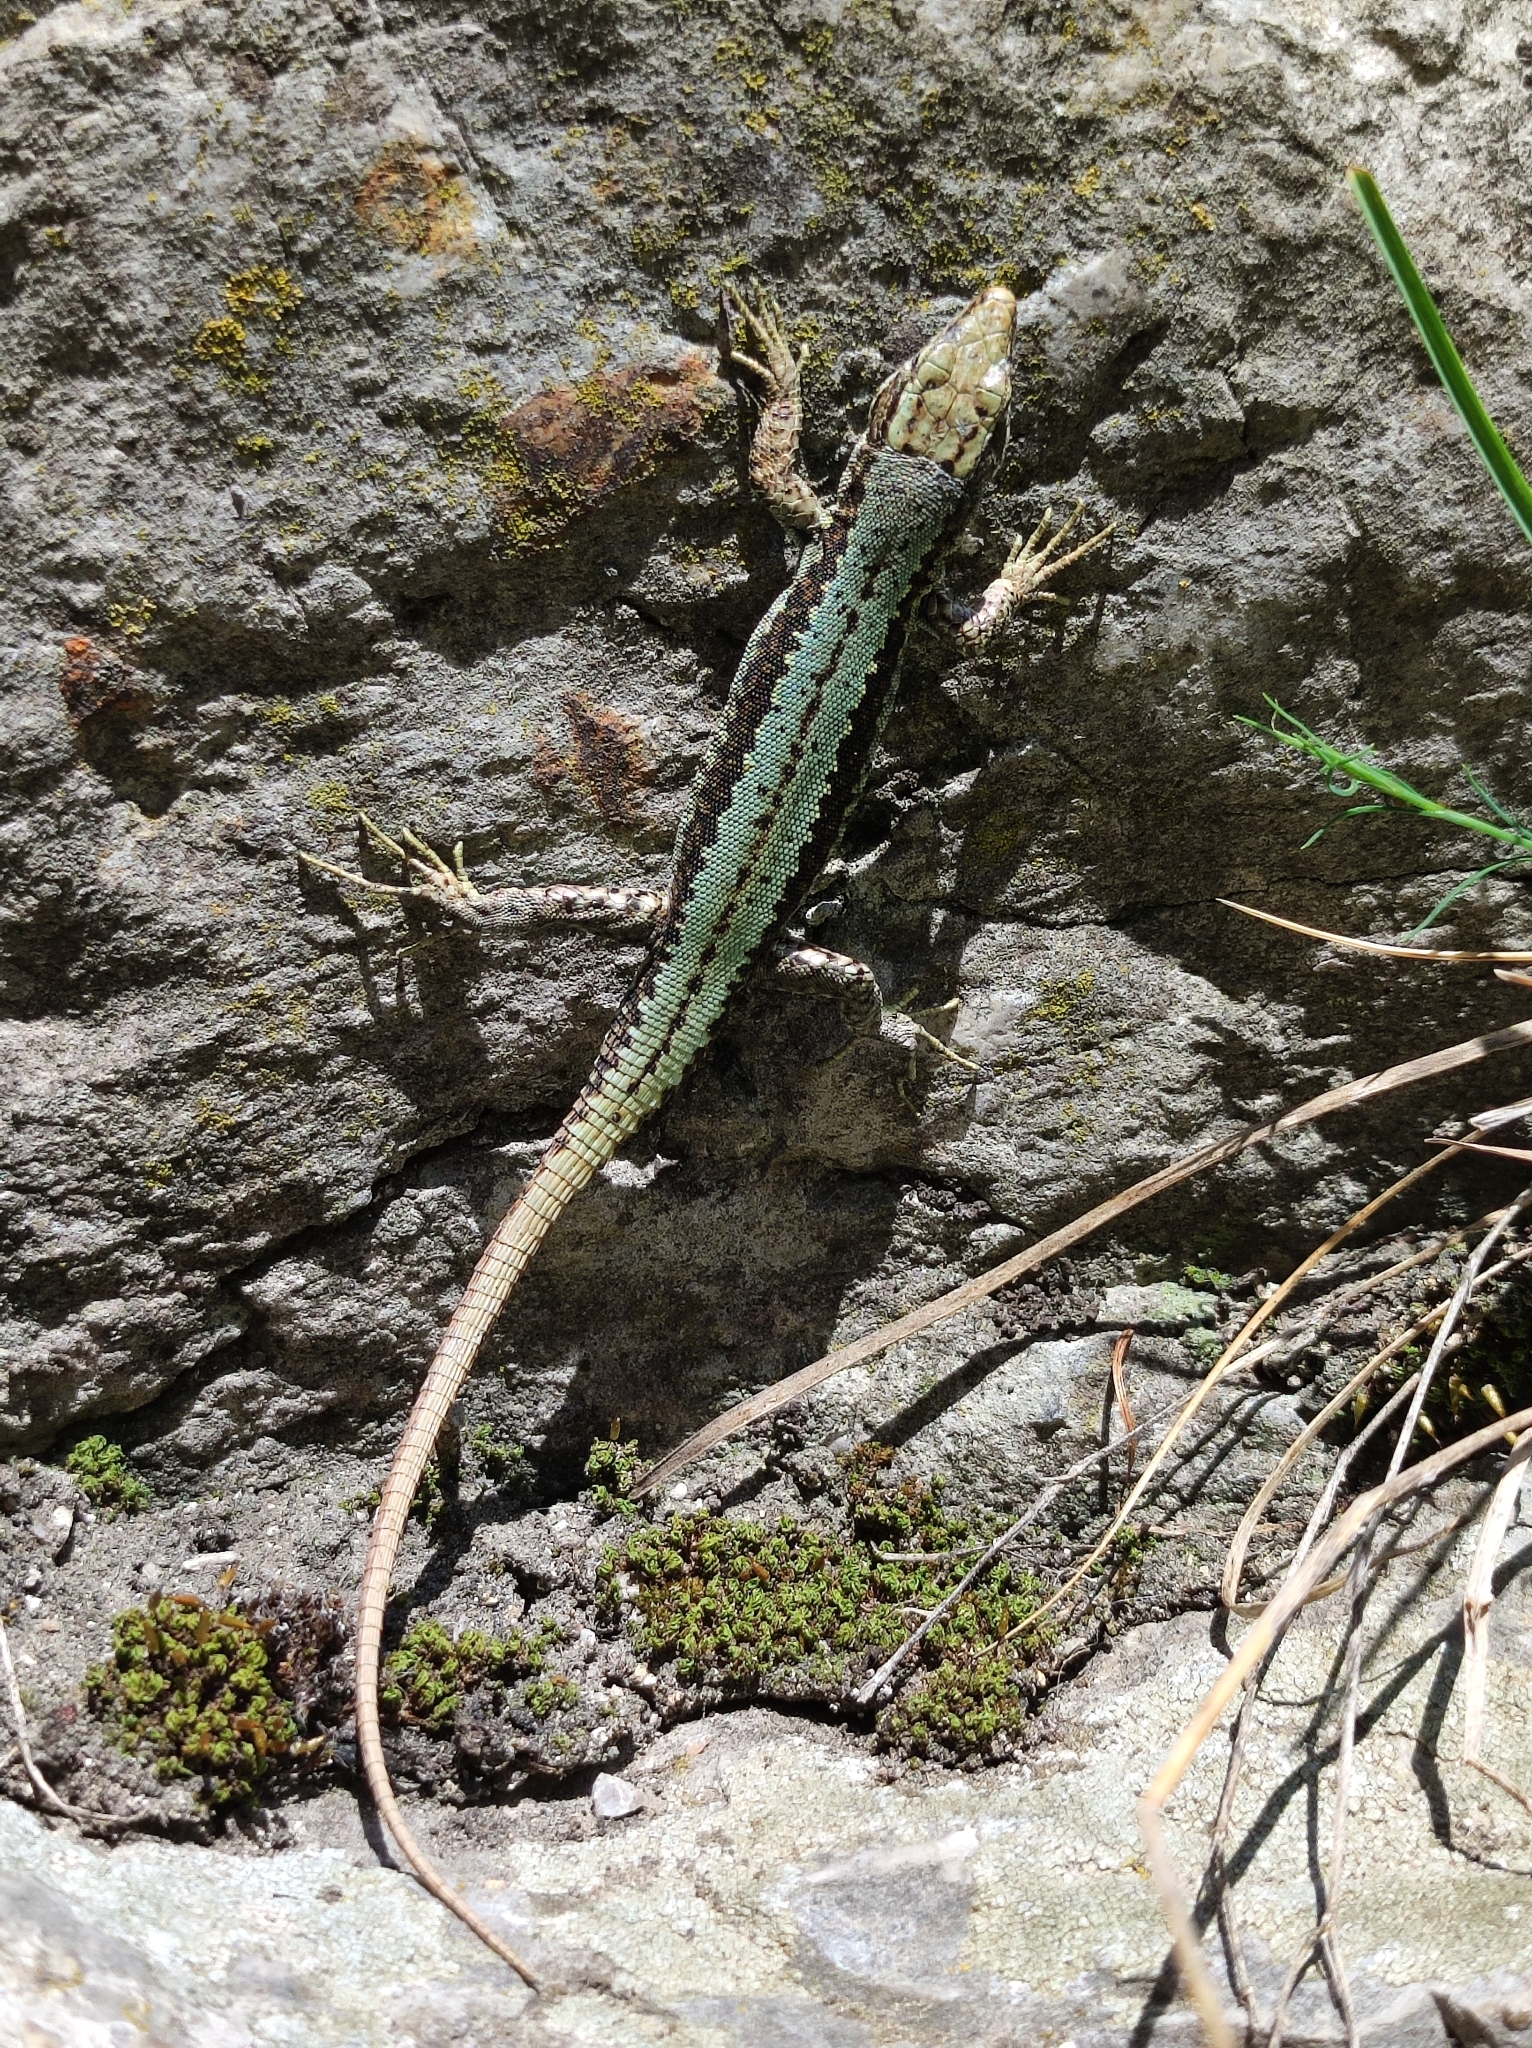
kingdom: Animalia
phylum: Chordata
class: Squamata
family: Lacertidae
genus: Iberolacerta
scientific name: Iberolacerta horvathi
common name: Horvath's rock lizard
